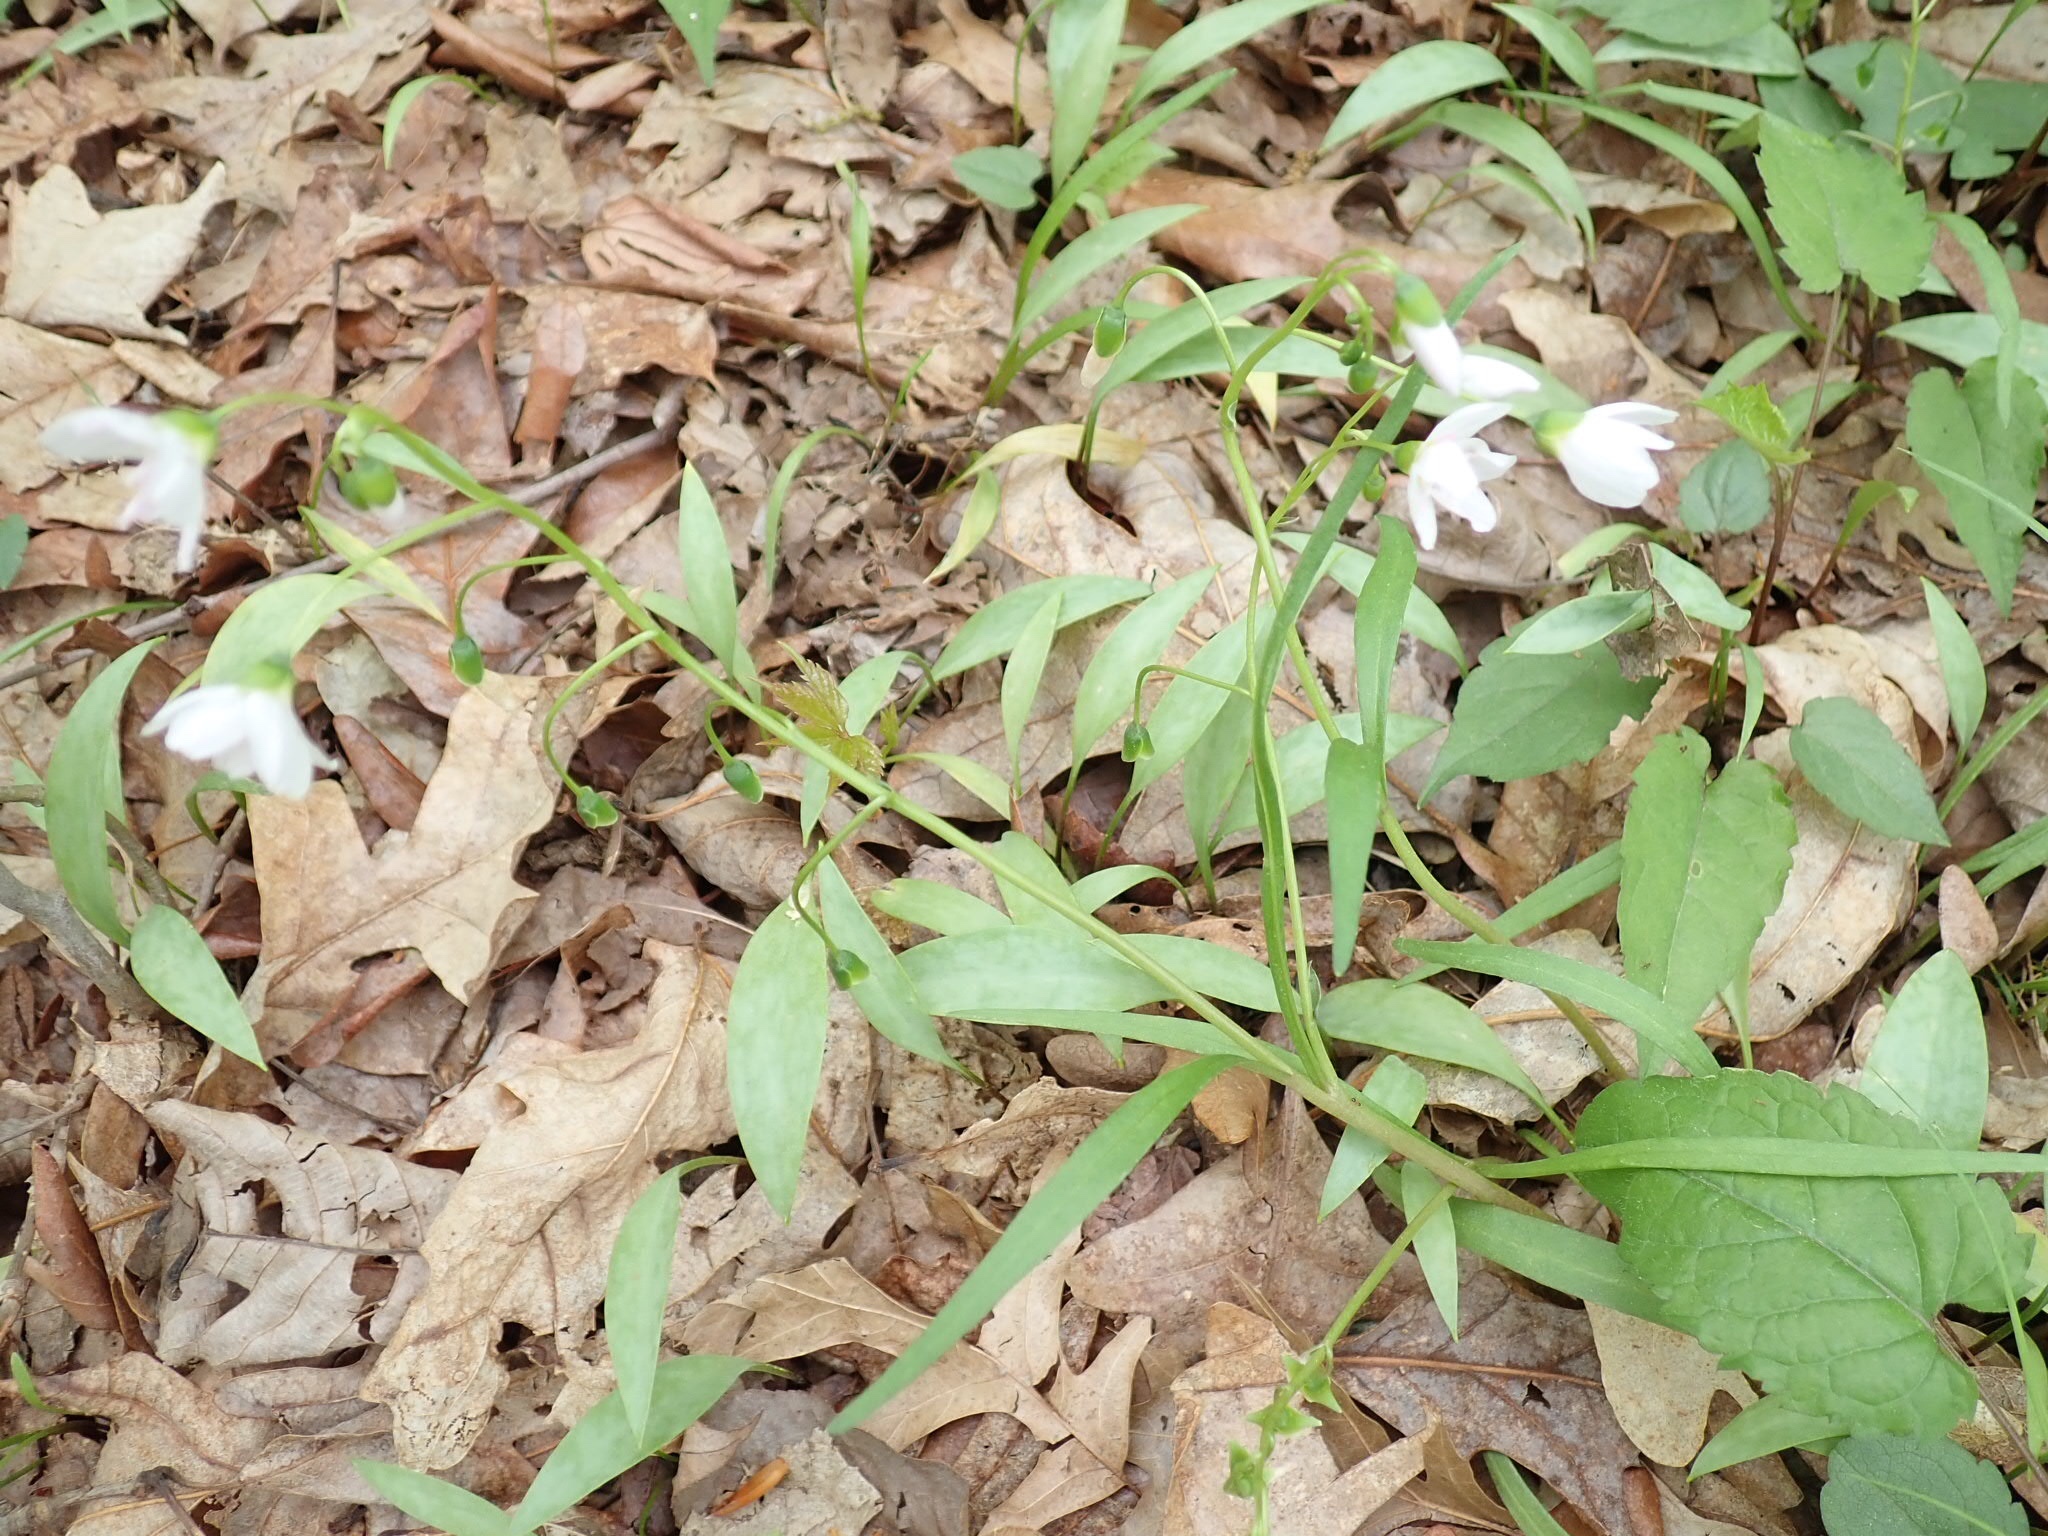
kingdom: Plantae
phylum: Tracheophyta
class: Magnoliopsida
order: Caryophyllales
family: Montiaceae
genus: Claytonia
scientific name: Claytonia virginica
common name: Virginia springbeauty
